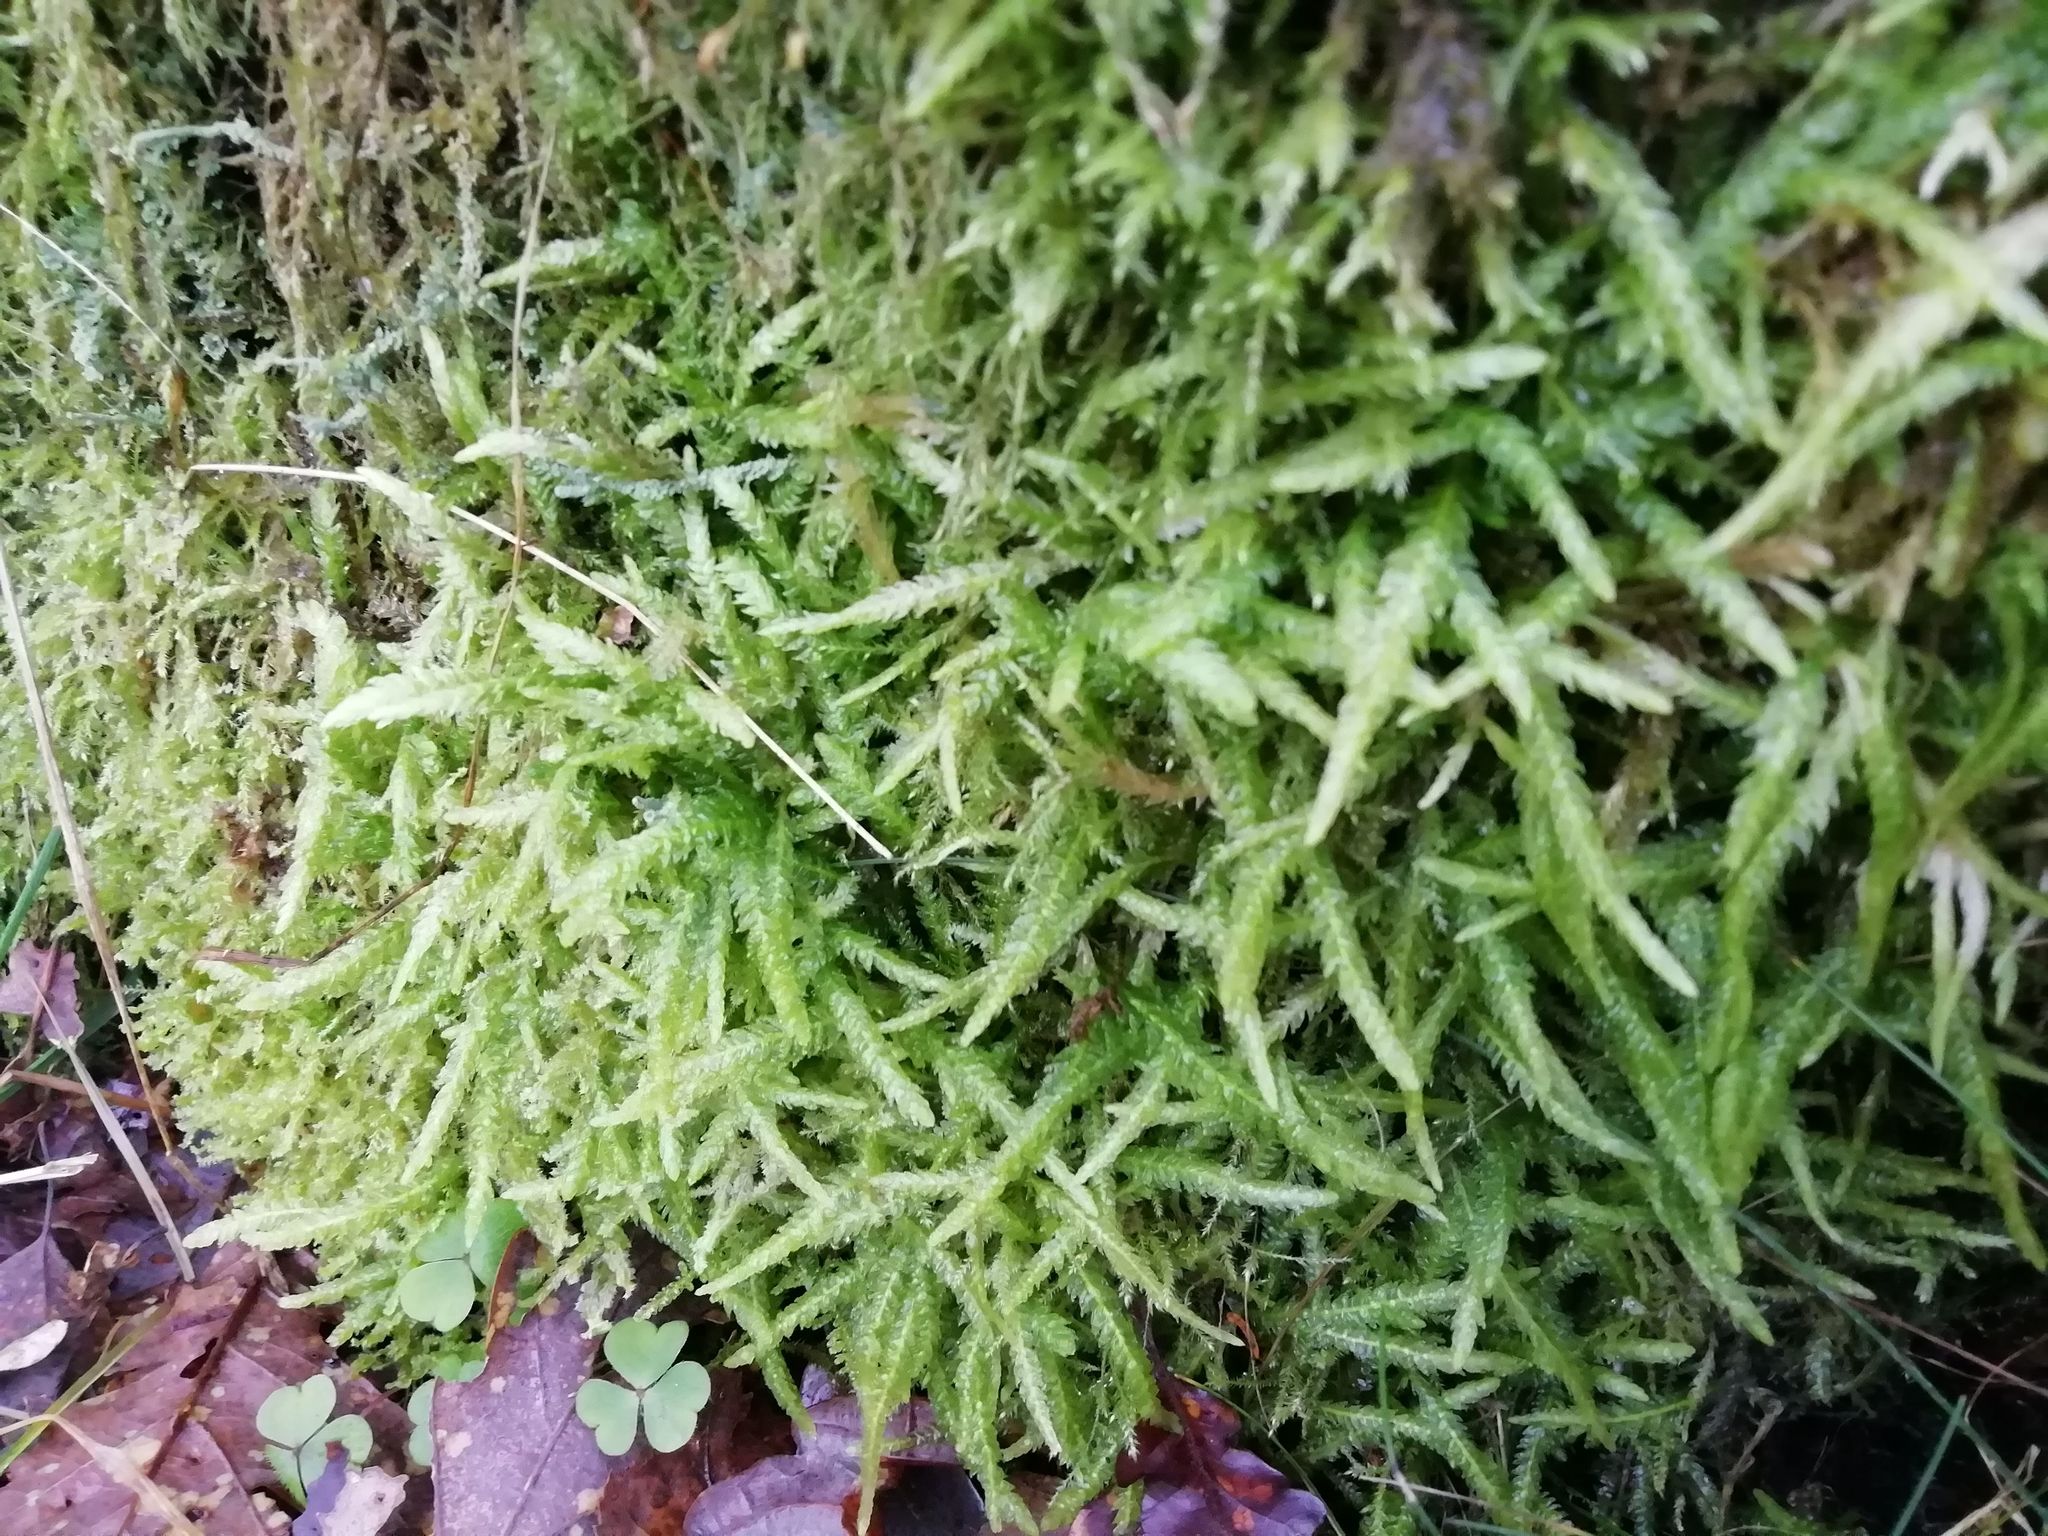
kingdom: Plantae
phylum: Bryophyta
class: Bryopsida
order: Hypnales
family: Plagiotheciaceae
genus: Plagiothecium
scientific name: Plagiothecium undulatum
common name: Waved silk-moss
